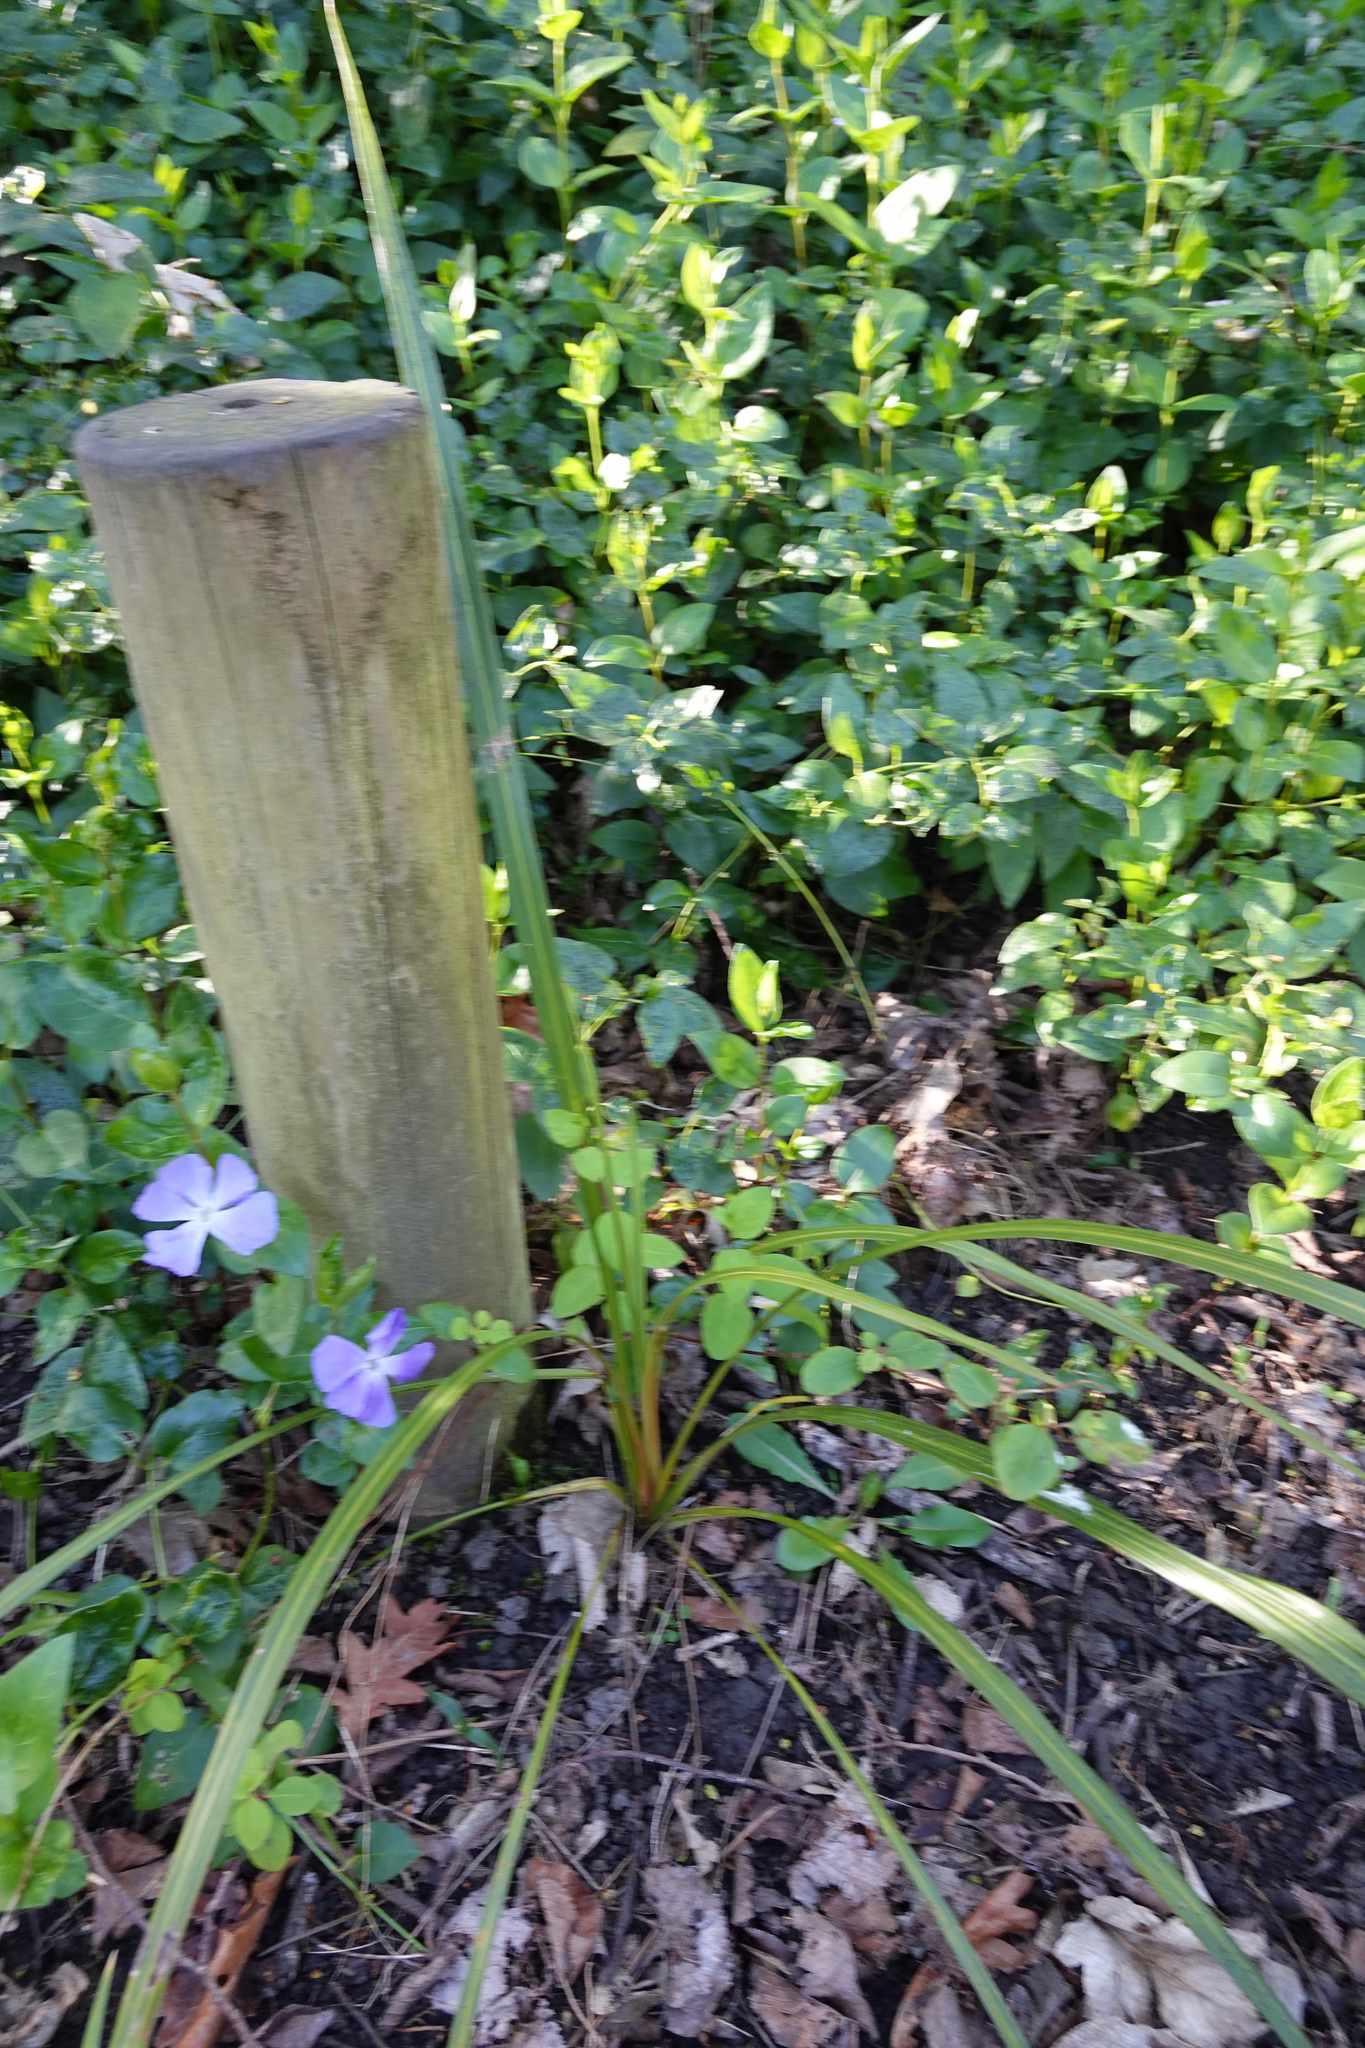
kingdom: Plantae
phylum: Tracheophyta
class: Liliopsida
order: Asparagales
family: Asparagaceae
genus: Cordyline
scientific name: Cordyline australis
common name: Cabbage-palm
